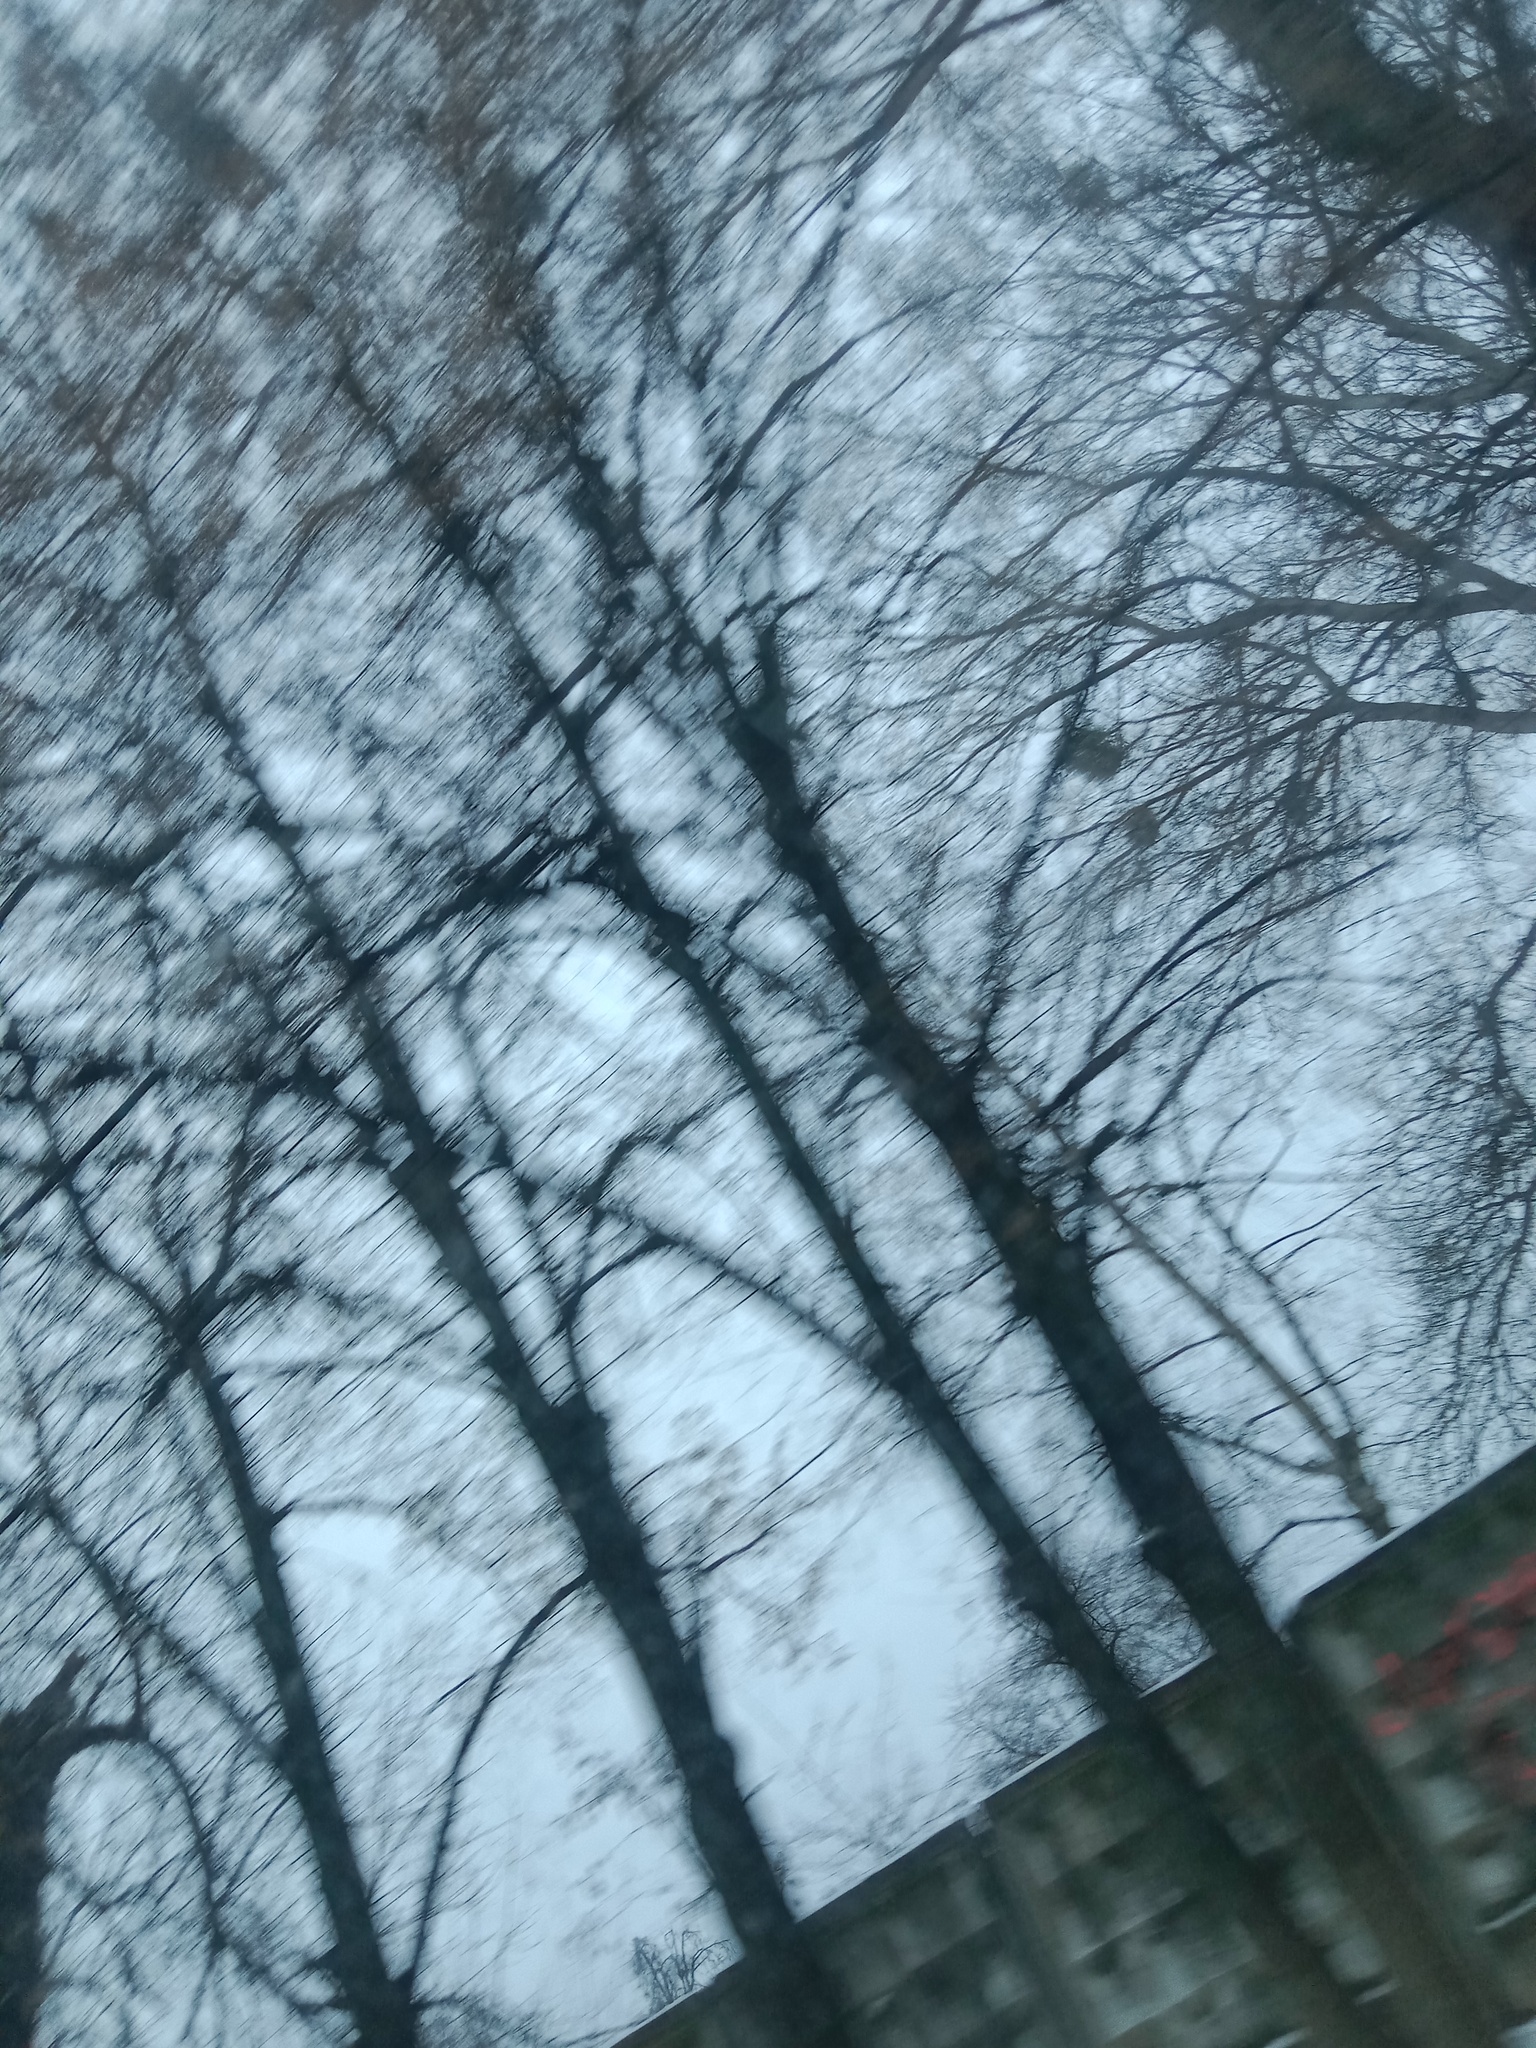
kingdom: Plantae
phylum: Tracheophyta
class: Magnoliopsida
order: Santalales
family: Viscaceae
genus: Viscum
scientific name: Viscum album
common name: Mistletoe
